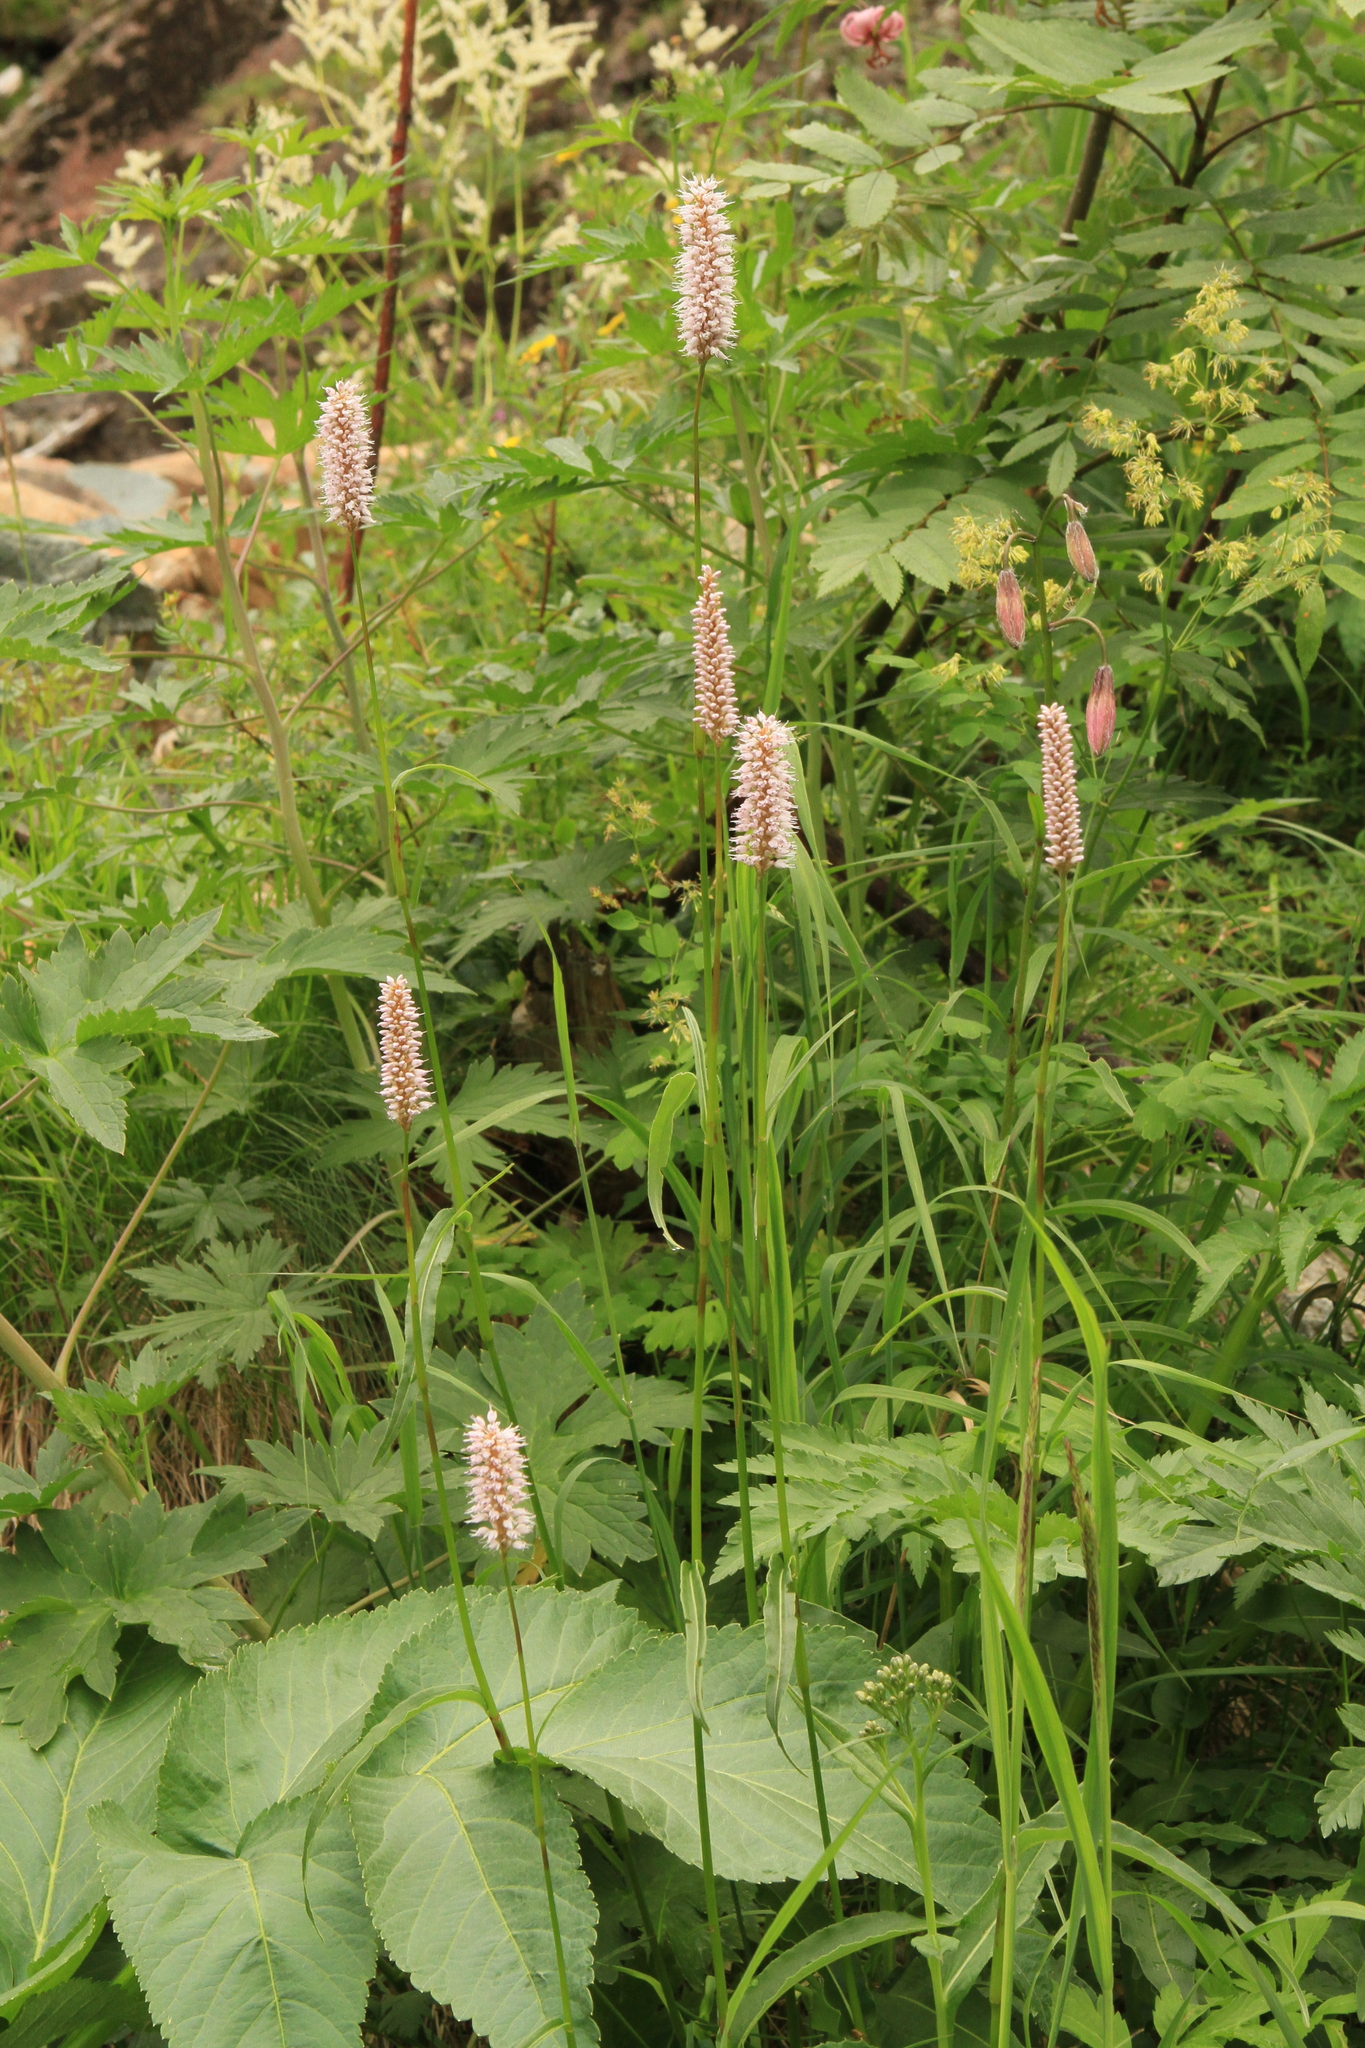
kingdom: Plantae
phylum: Tracheophyta
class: Magnoliopsida
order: Caryophyllales
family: Polygonaceae
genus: Bistorta
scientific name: Bistorta officinalis
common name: Common bistort
